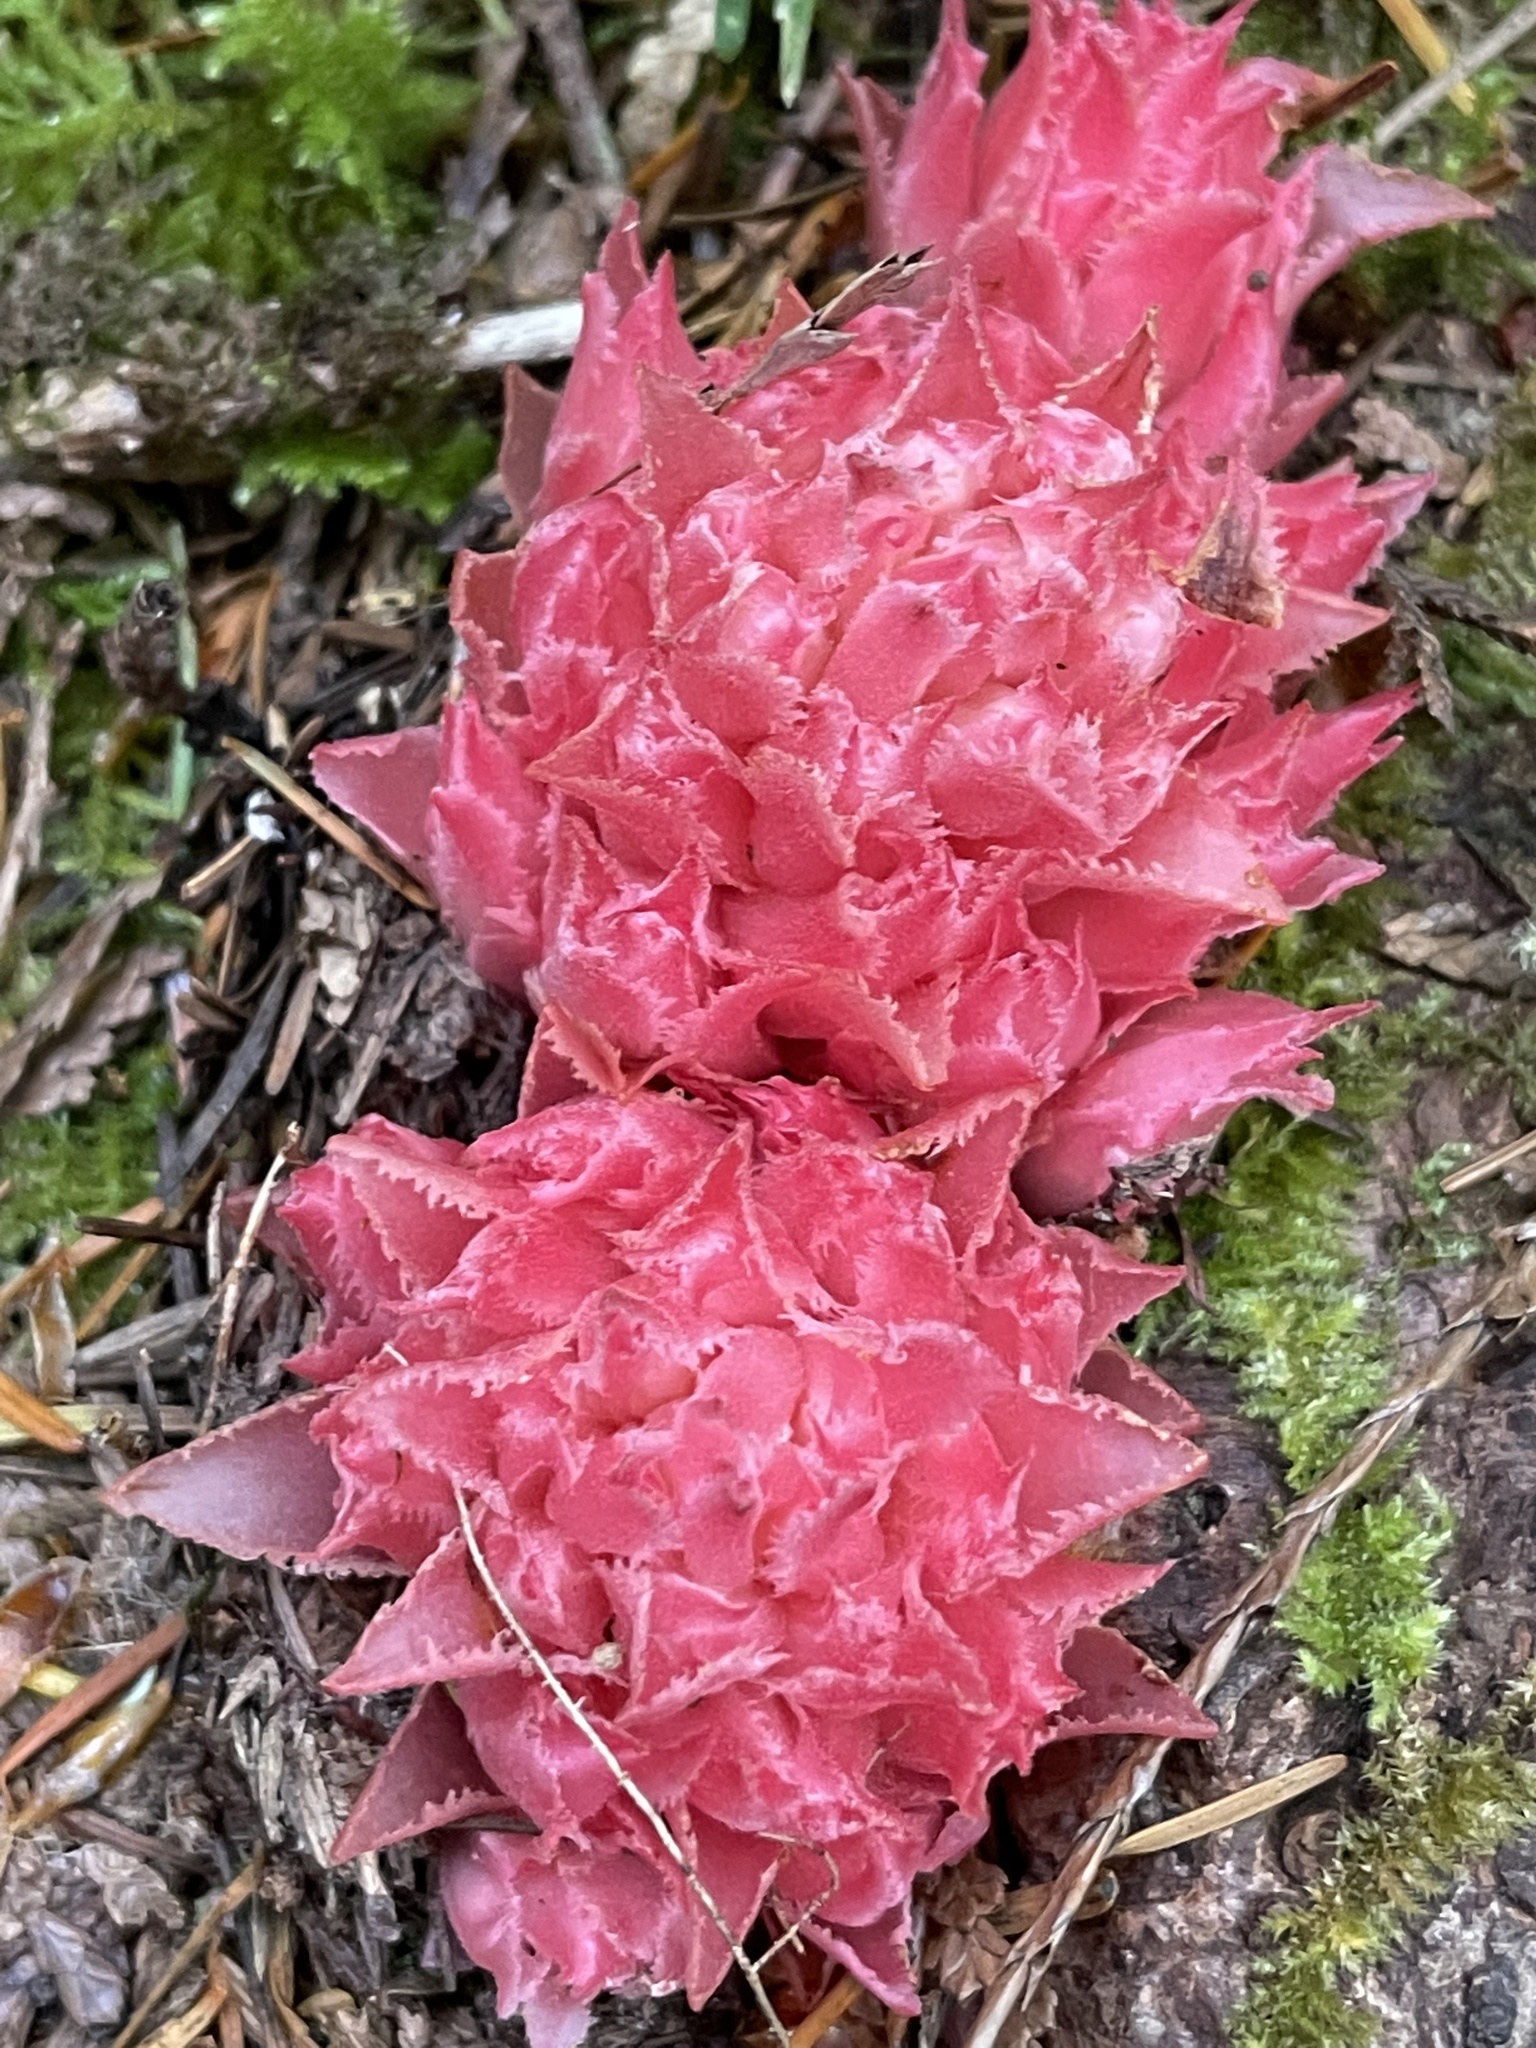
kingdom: Plantae
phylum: Tracheophyta
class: Magnoliopsida
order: Ericales
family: Ericaceae
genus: Hemitomes
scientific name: Hemitomes congestum
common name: Cone plant
